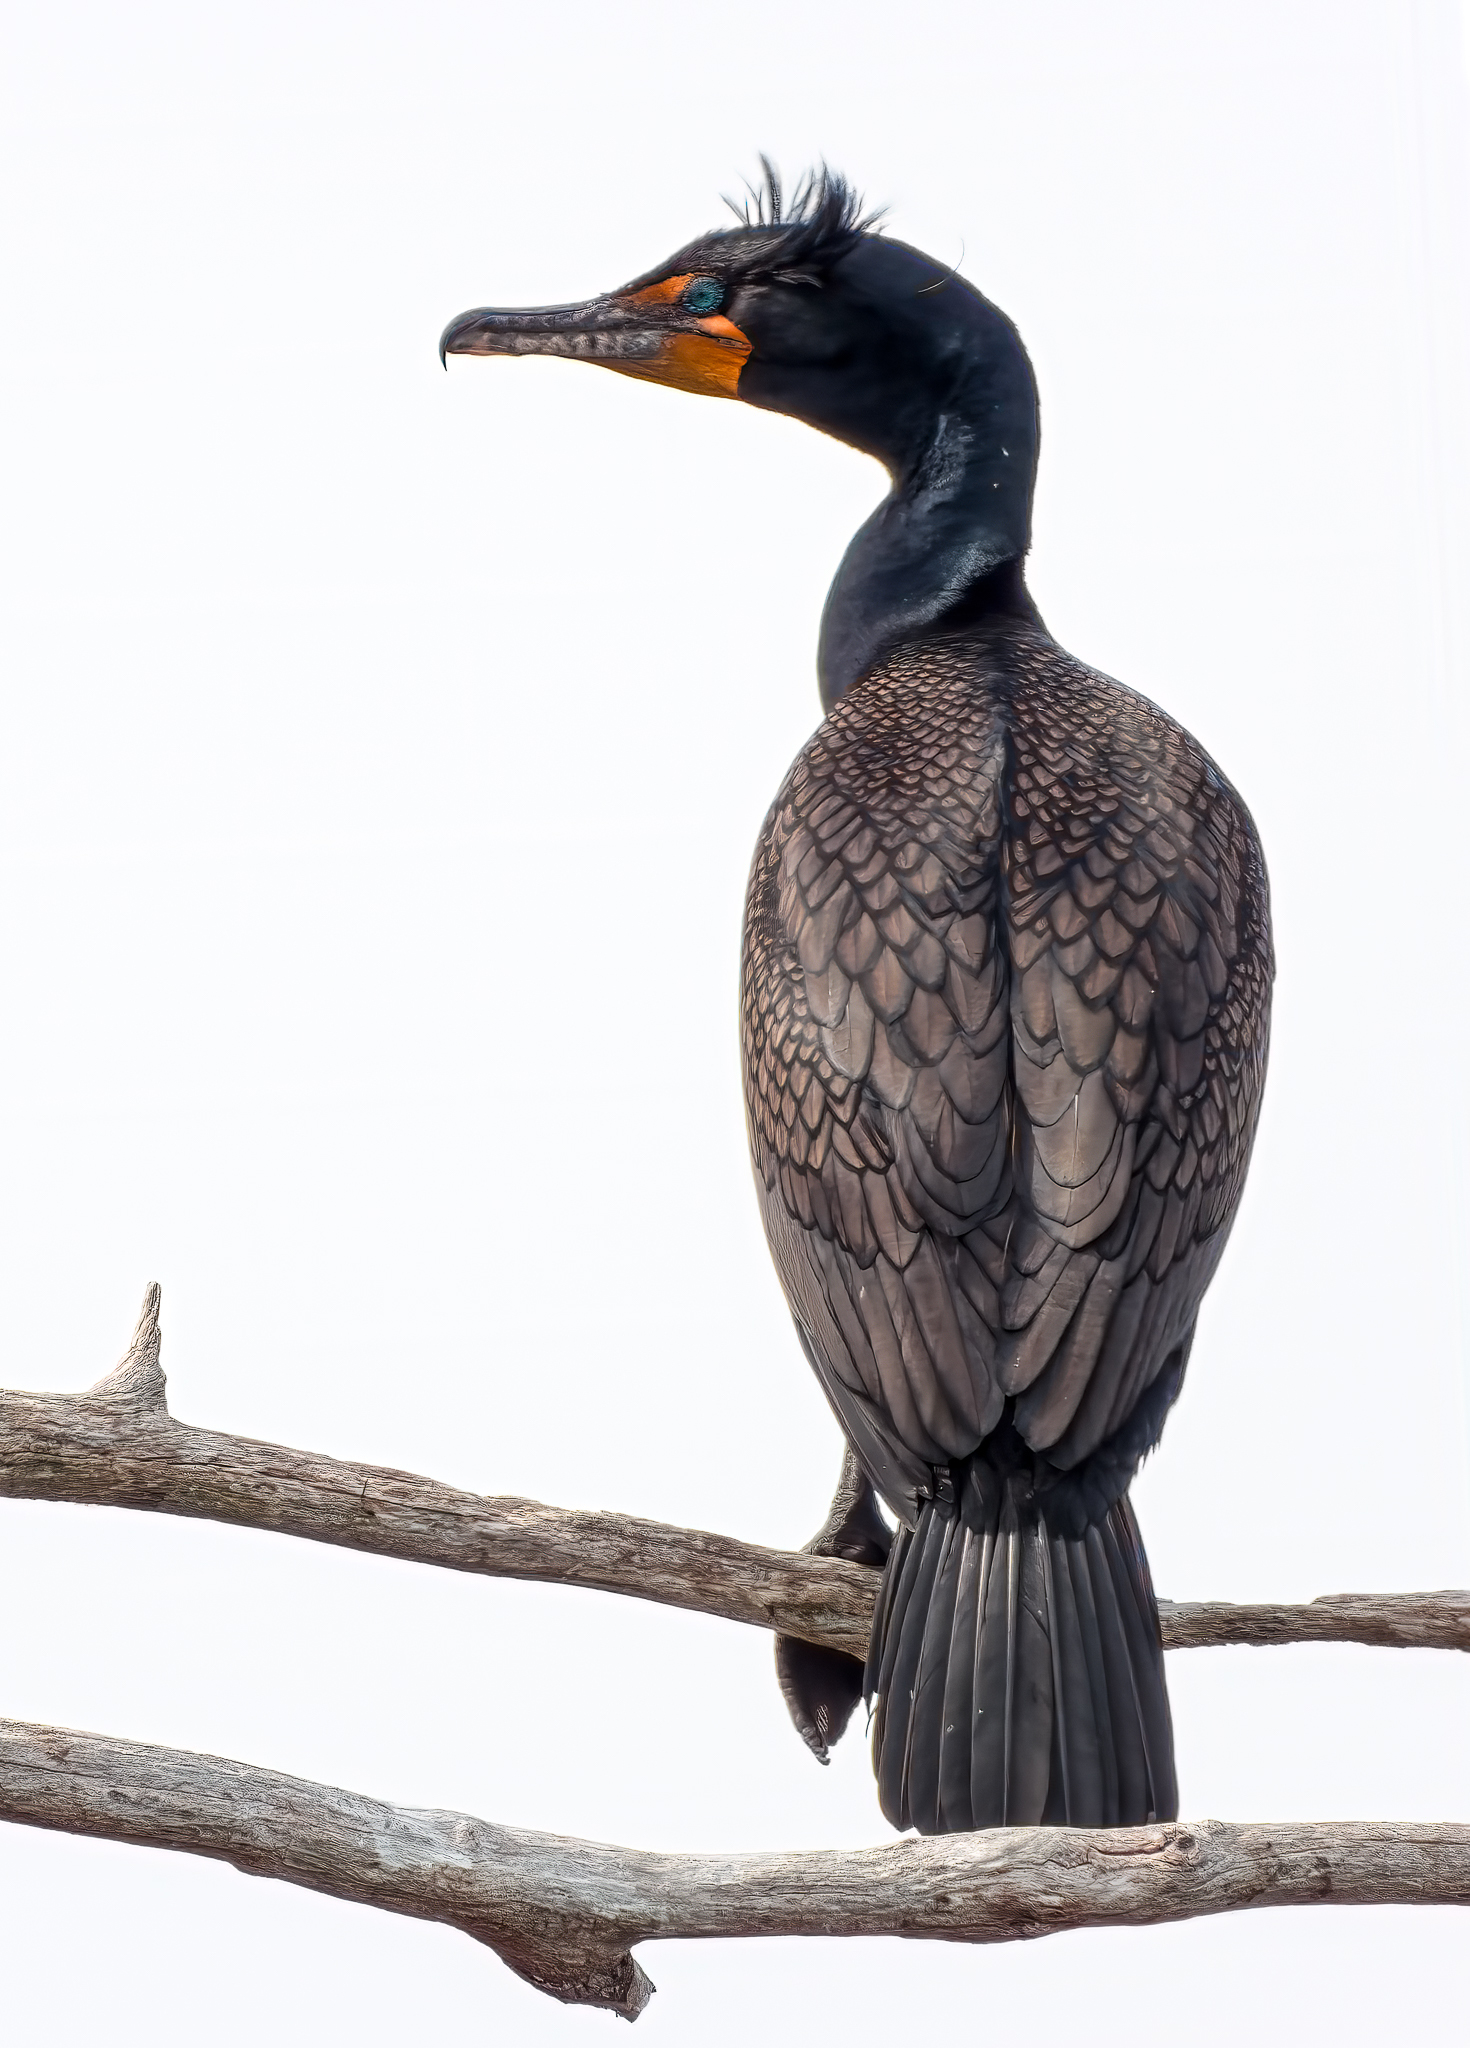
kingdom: Animalia
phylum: Chordata
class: Aves
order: Suliformes
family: Phalacrocoracidae
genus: Phalacrocorax
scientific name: Phalacrocorax auritus
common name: Double-crested cormorant
